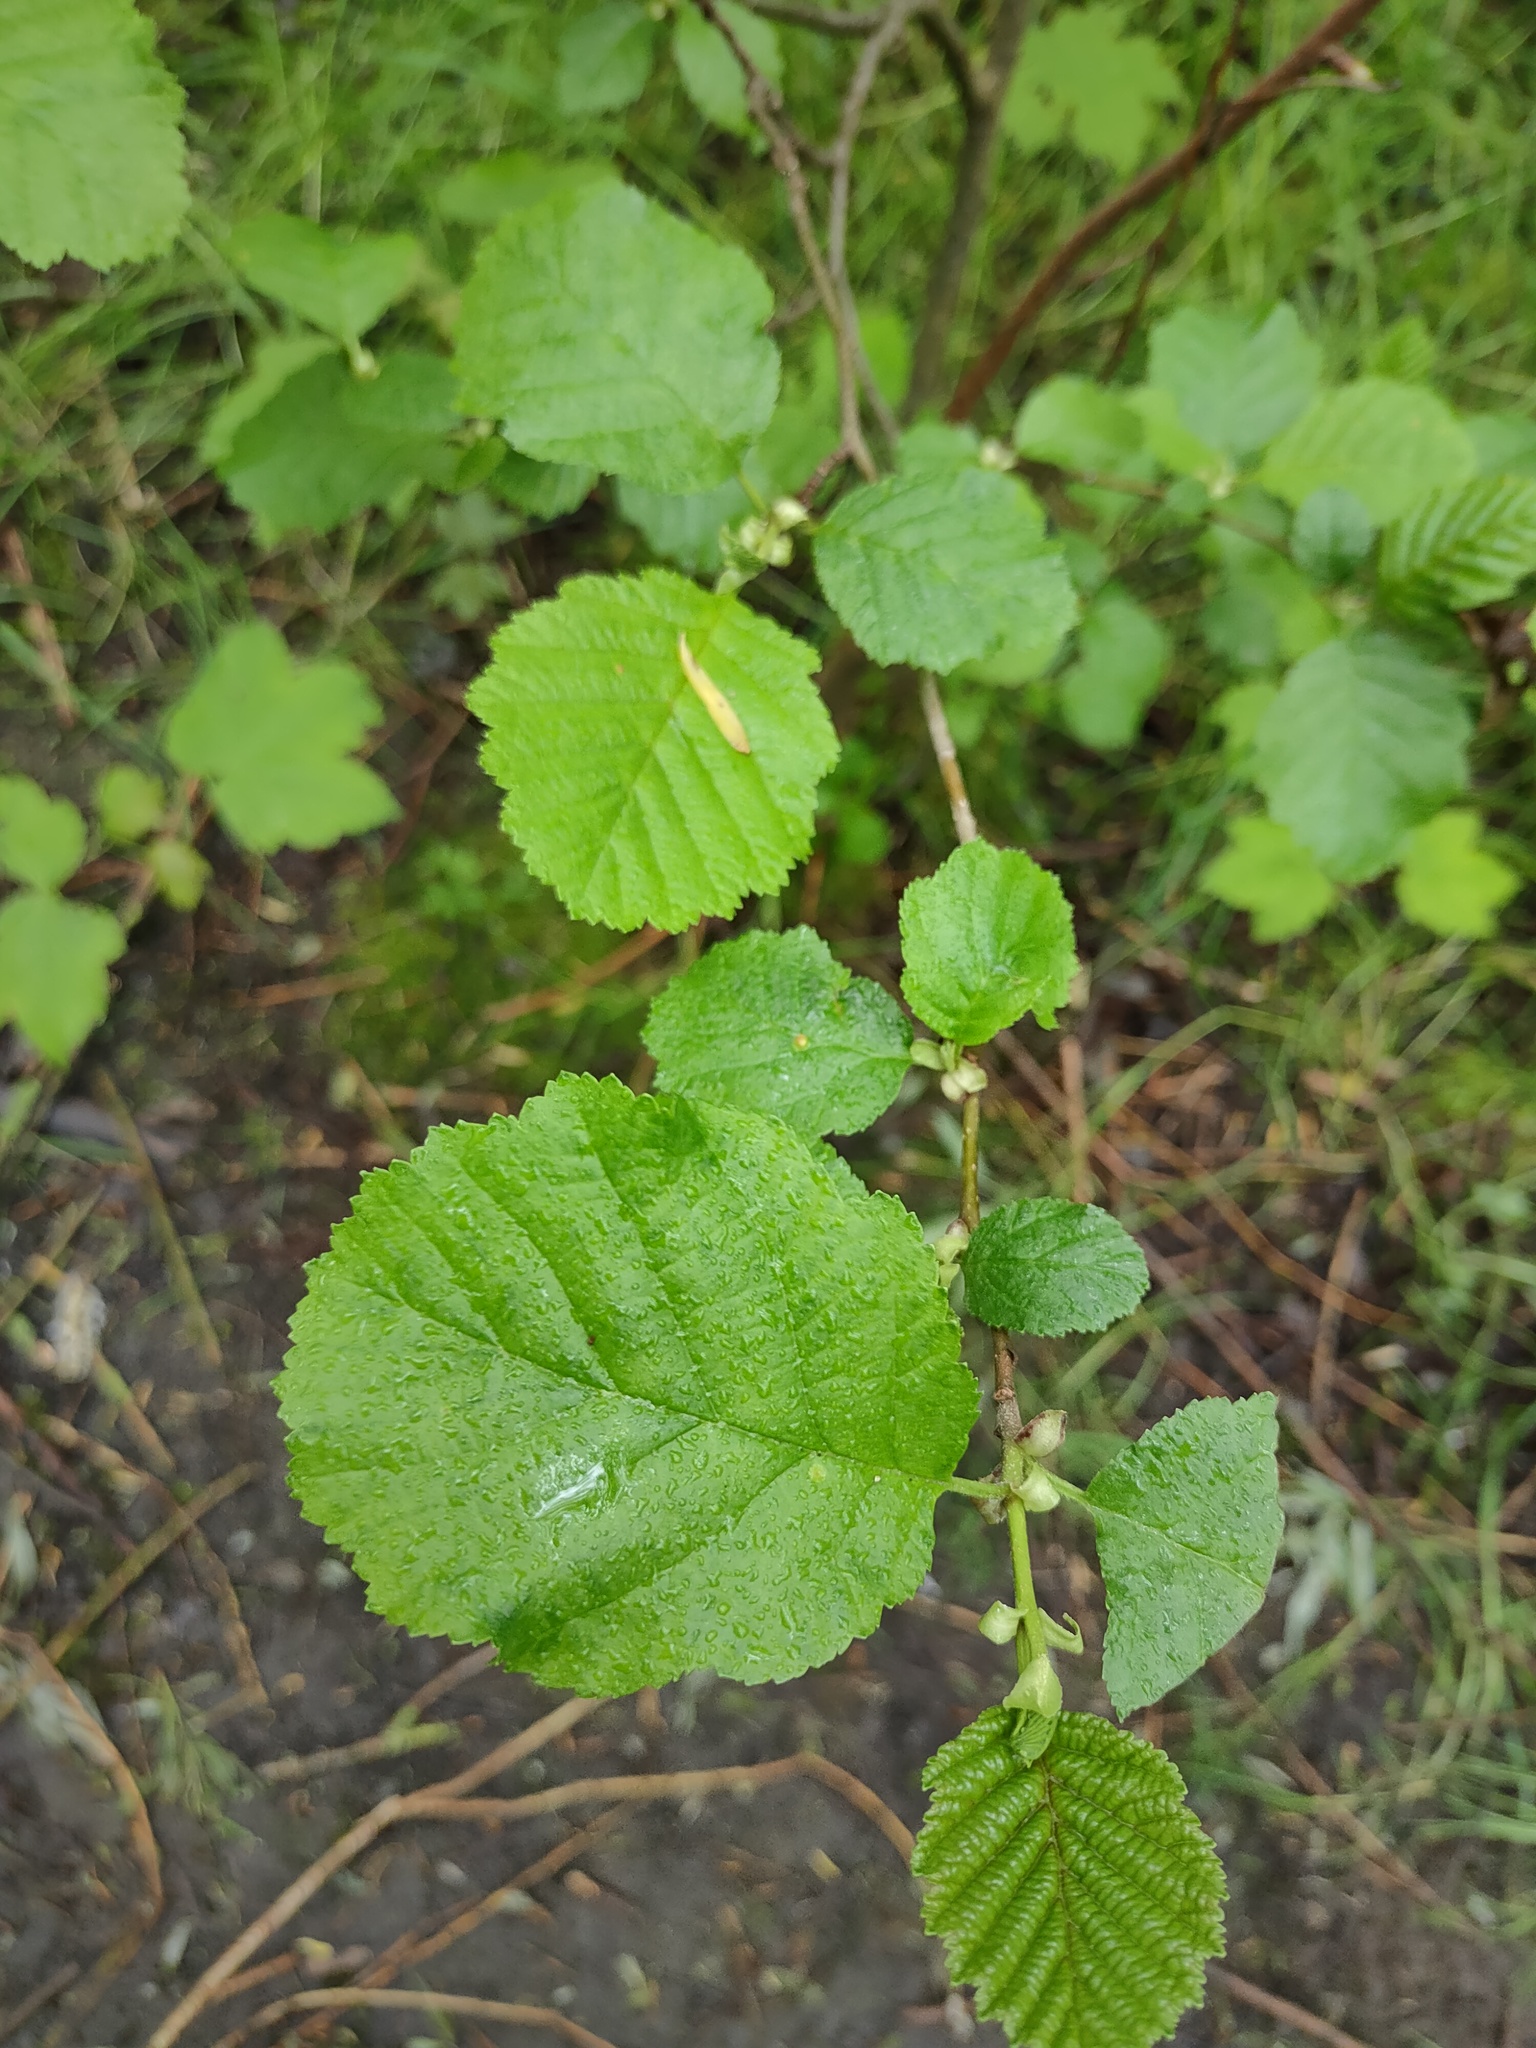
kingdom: Plantae
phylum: Tracheophyta
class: Magnoliopsida
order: Fagales
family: Betulaceae
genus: Alnus
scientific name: Alnus glutinosa
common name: Black alder
